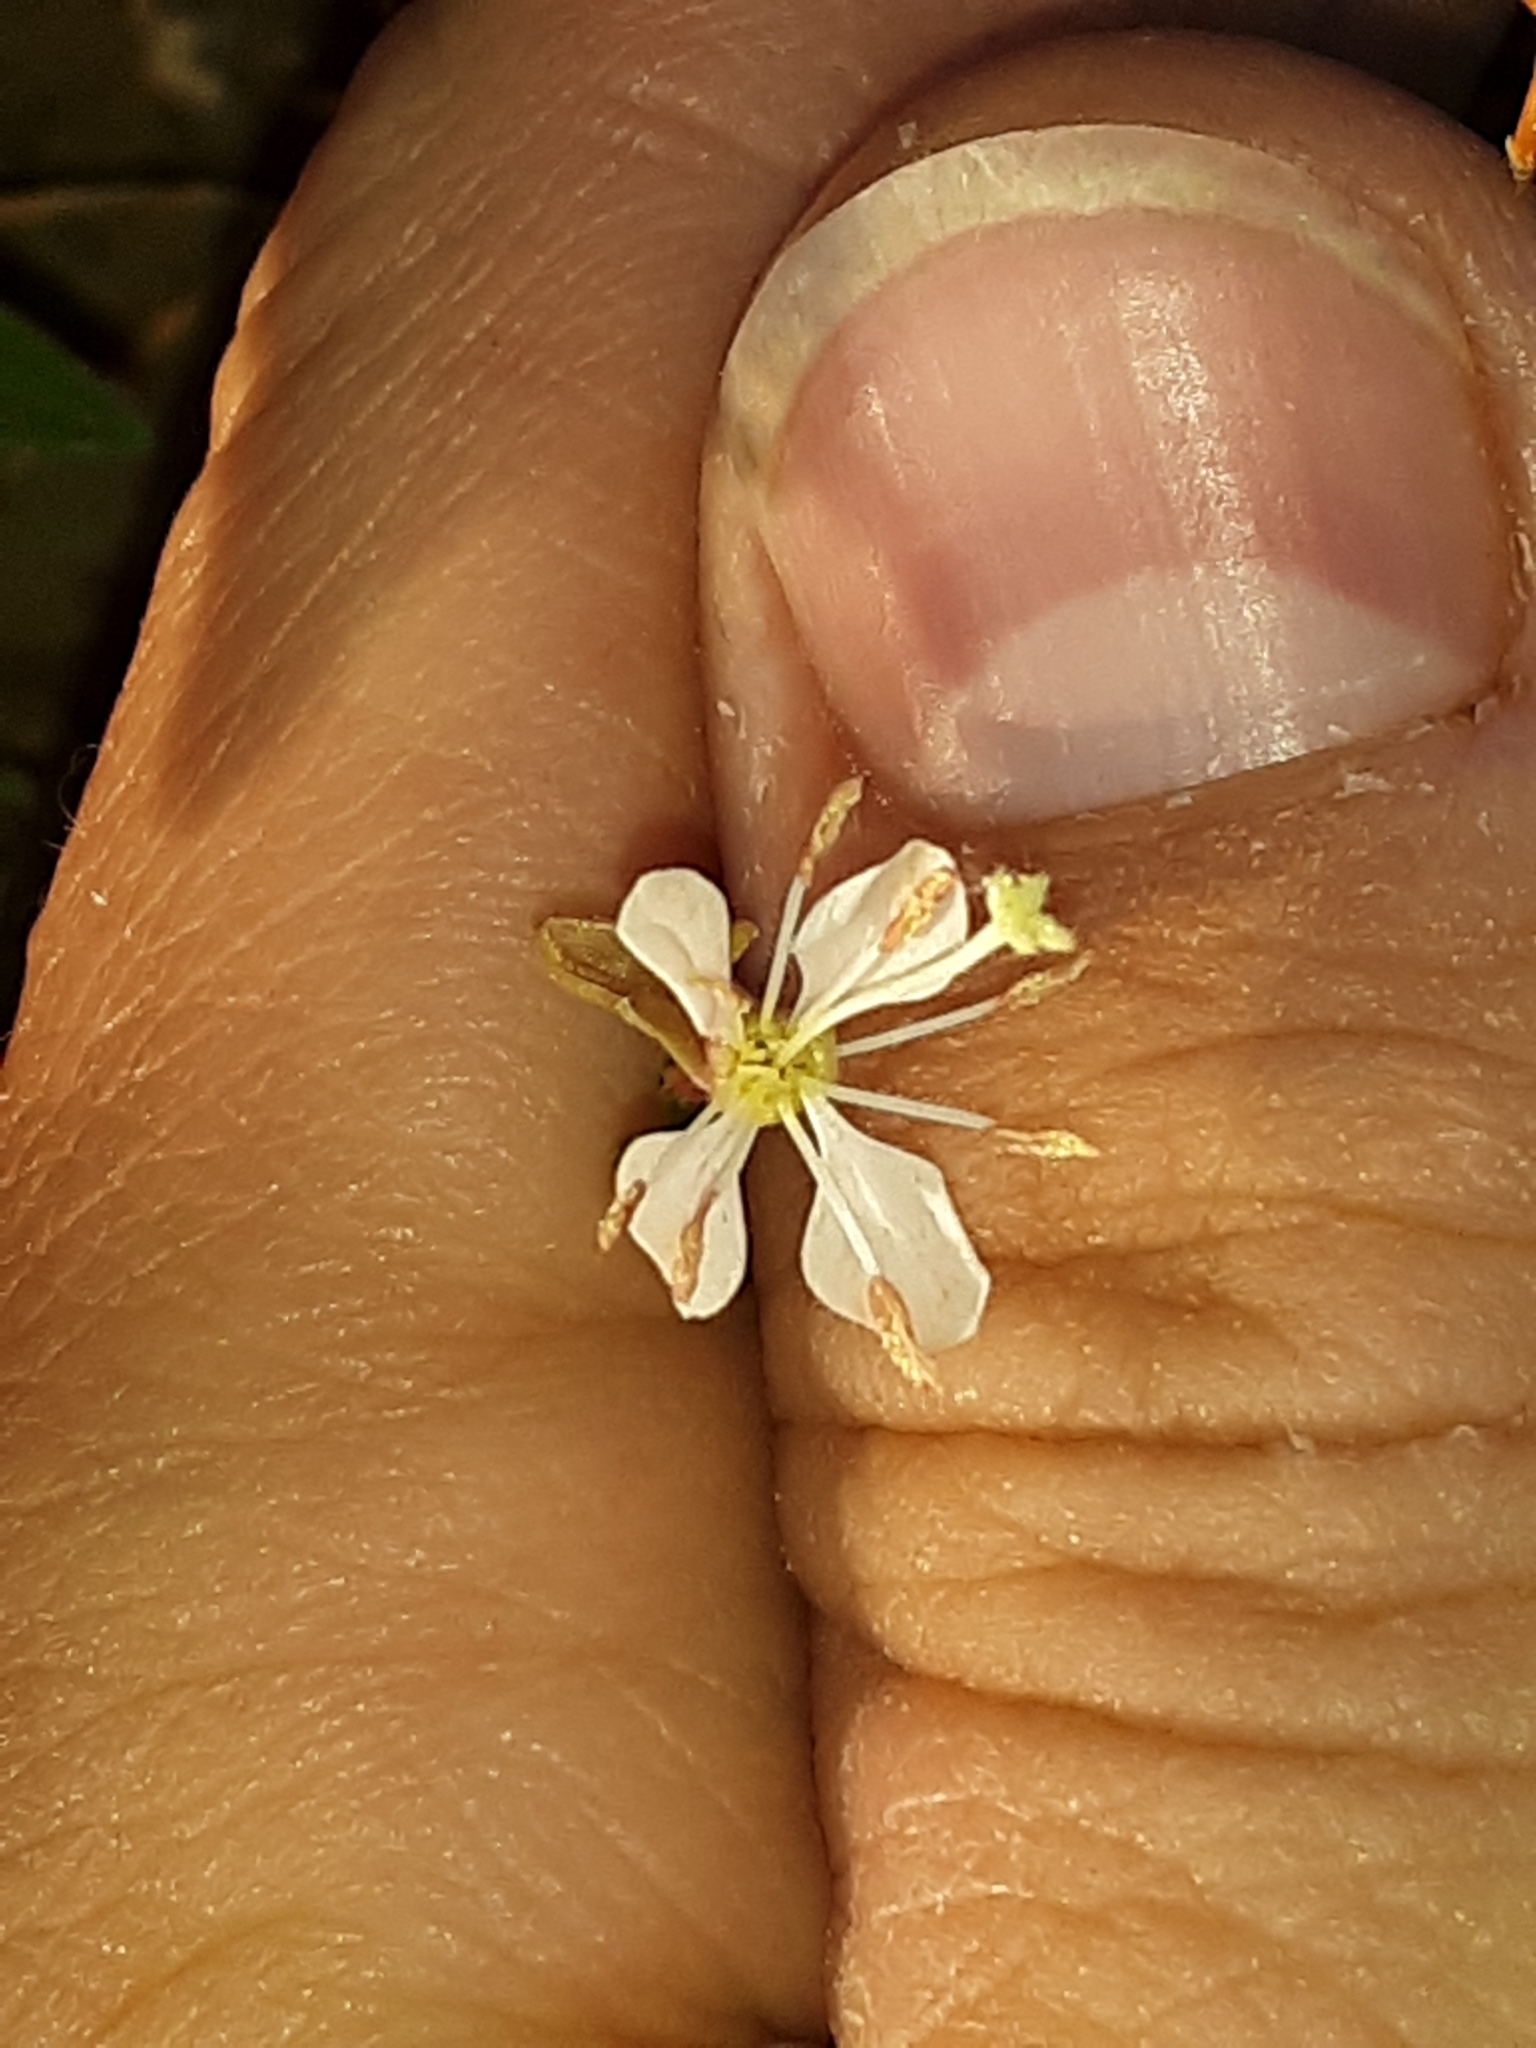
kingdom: Plantae
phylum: Tracheophyta
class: Magnoliopsida
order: Myrtales
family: Onagraceae
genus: Oenothera
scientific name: Oenothera suffrutescens
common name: Scarlet beeblossom
